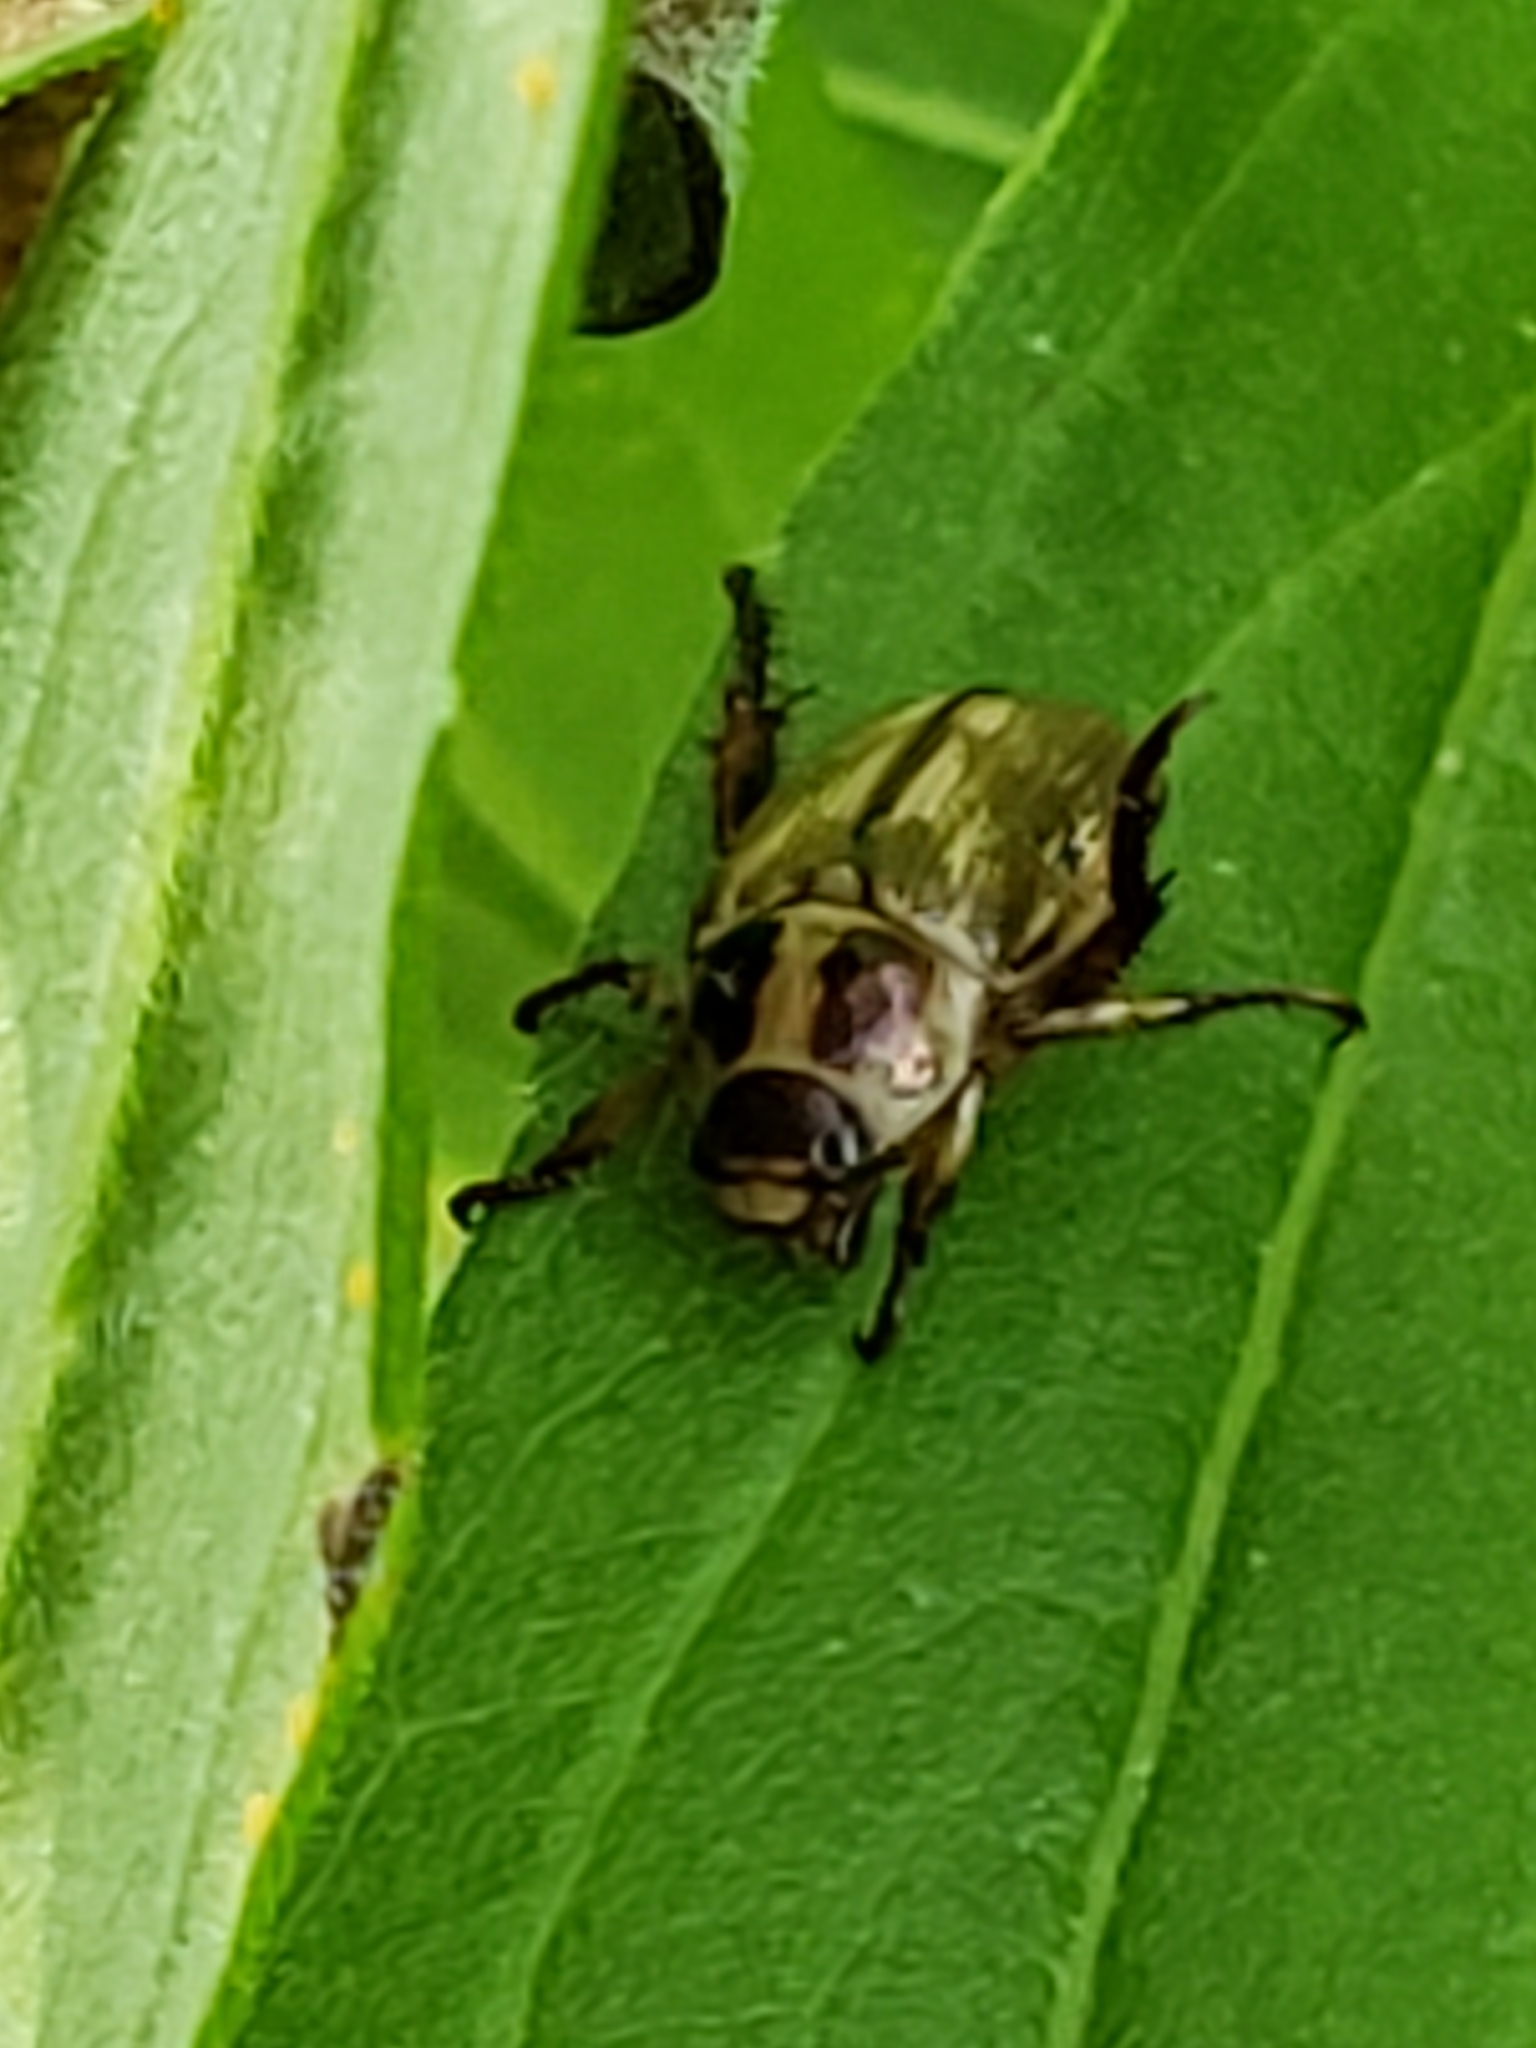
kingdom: Animalia
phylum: Arthropoda
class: Insecta
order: Coleoptera
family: Scarabaeidae
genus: Exomala
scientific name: Exomala orientalis
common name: Oriental beetle
